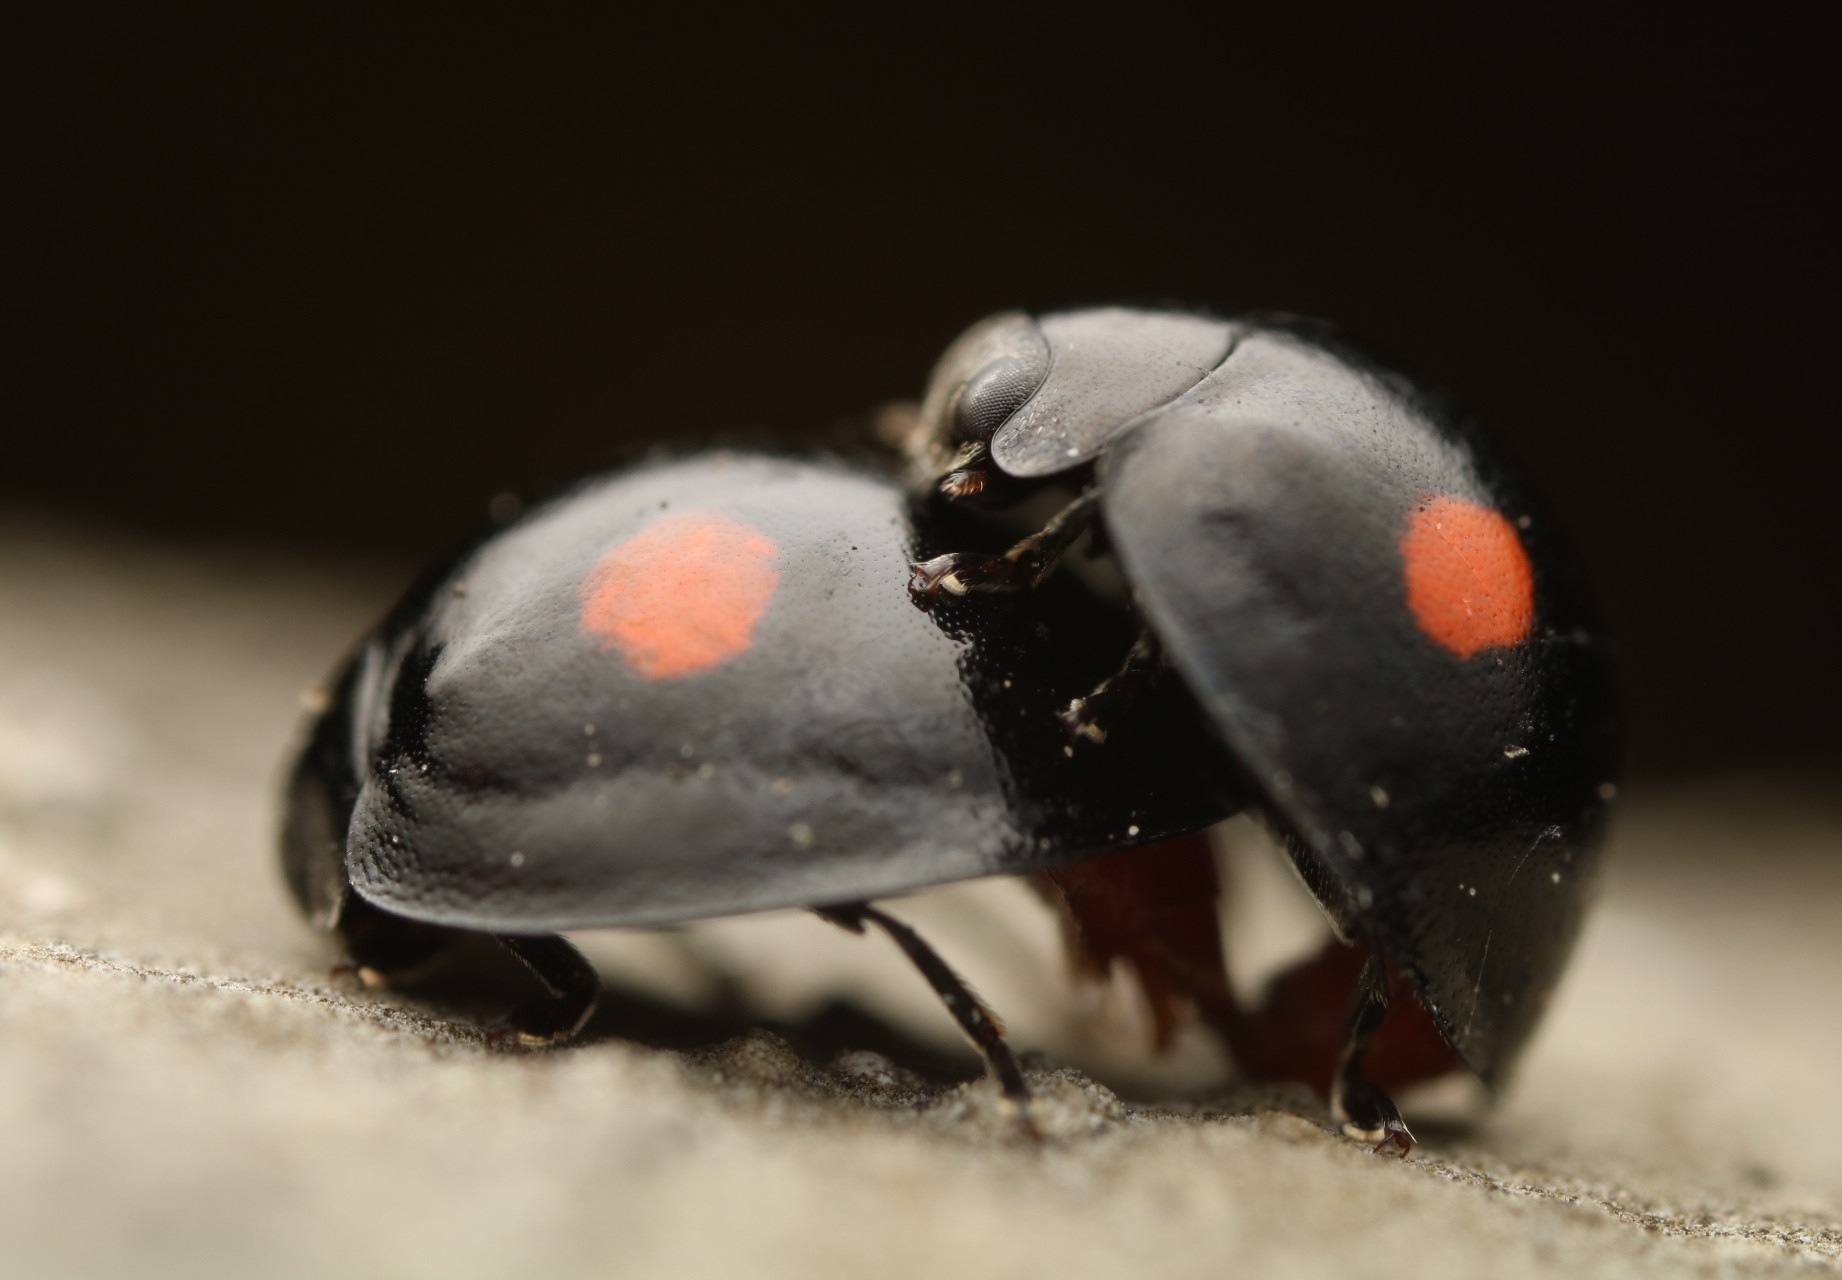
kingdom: Animalia
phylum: Arthropoda
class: Insecta
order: Coleoptera
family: Coccinellidae
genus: Chilocorus
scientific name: Chilocorus stigma
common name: Twicestabbed lady beetle
